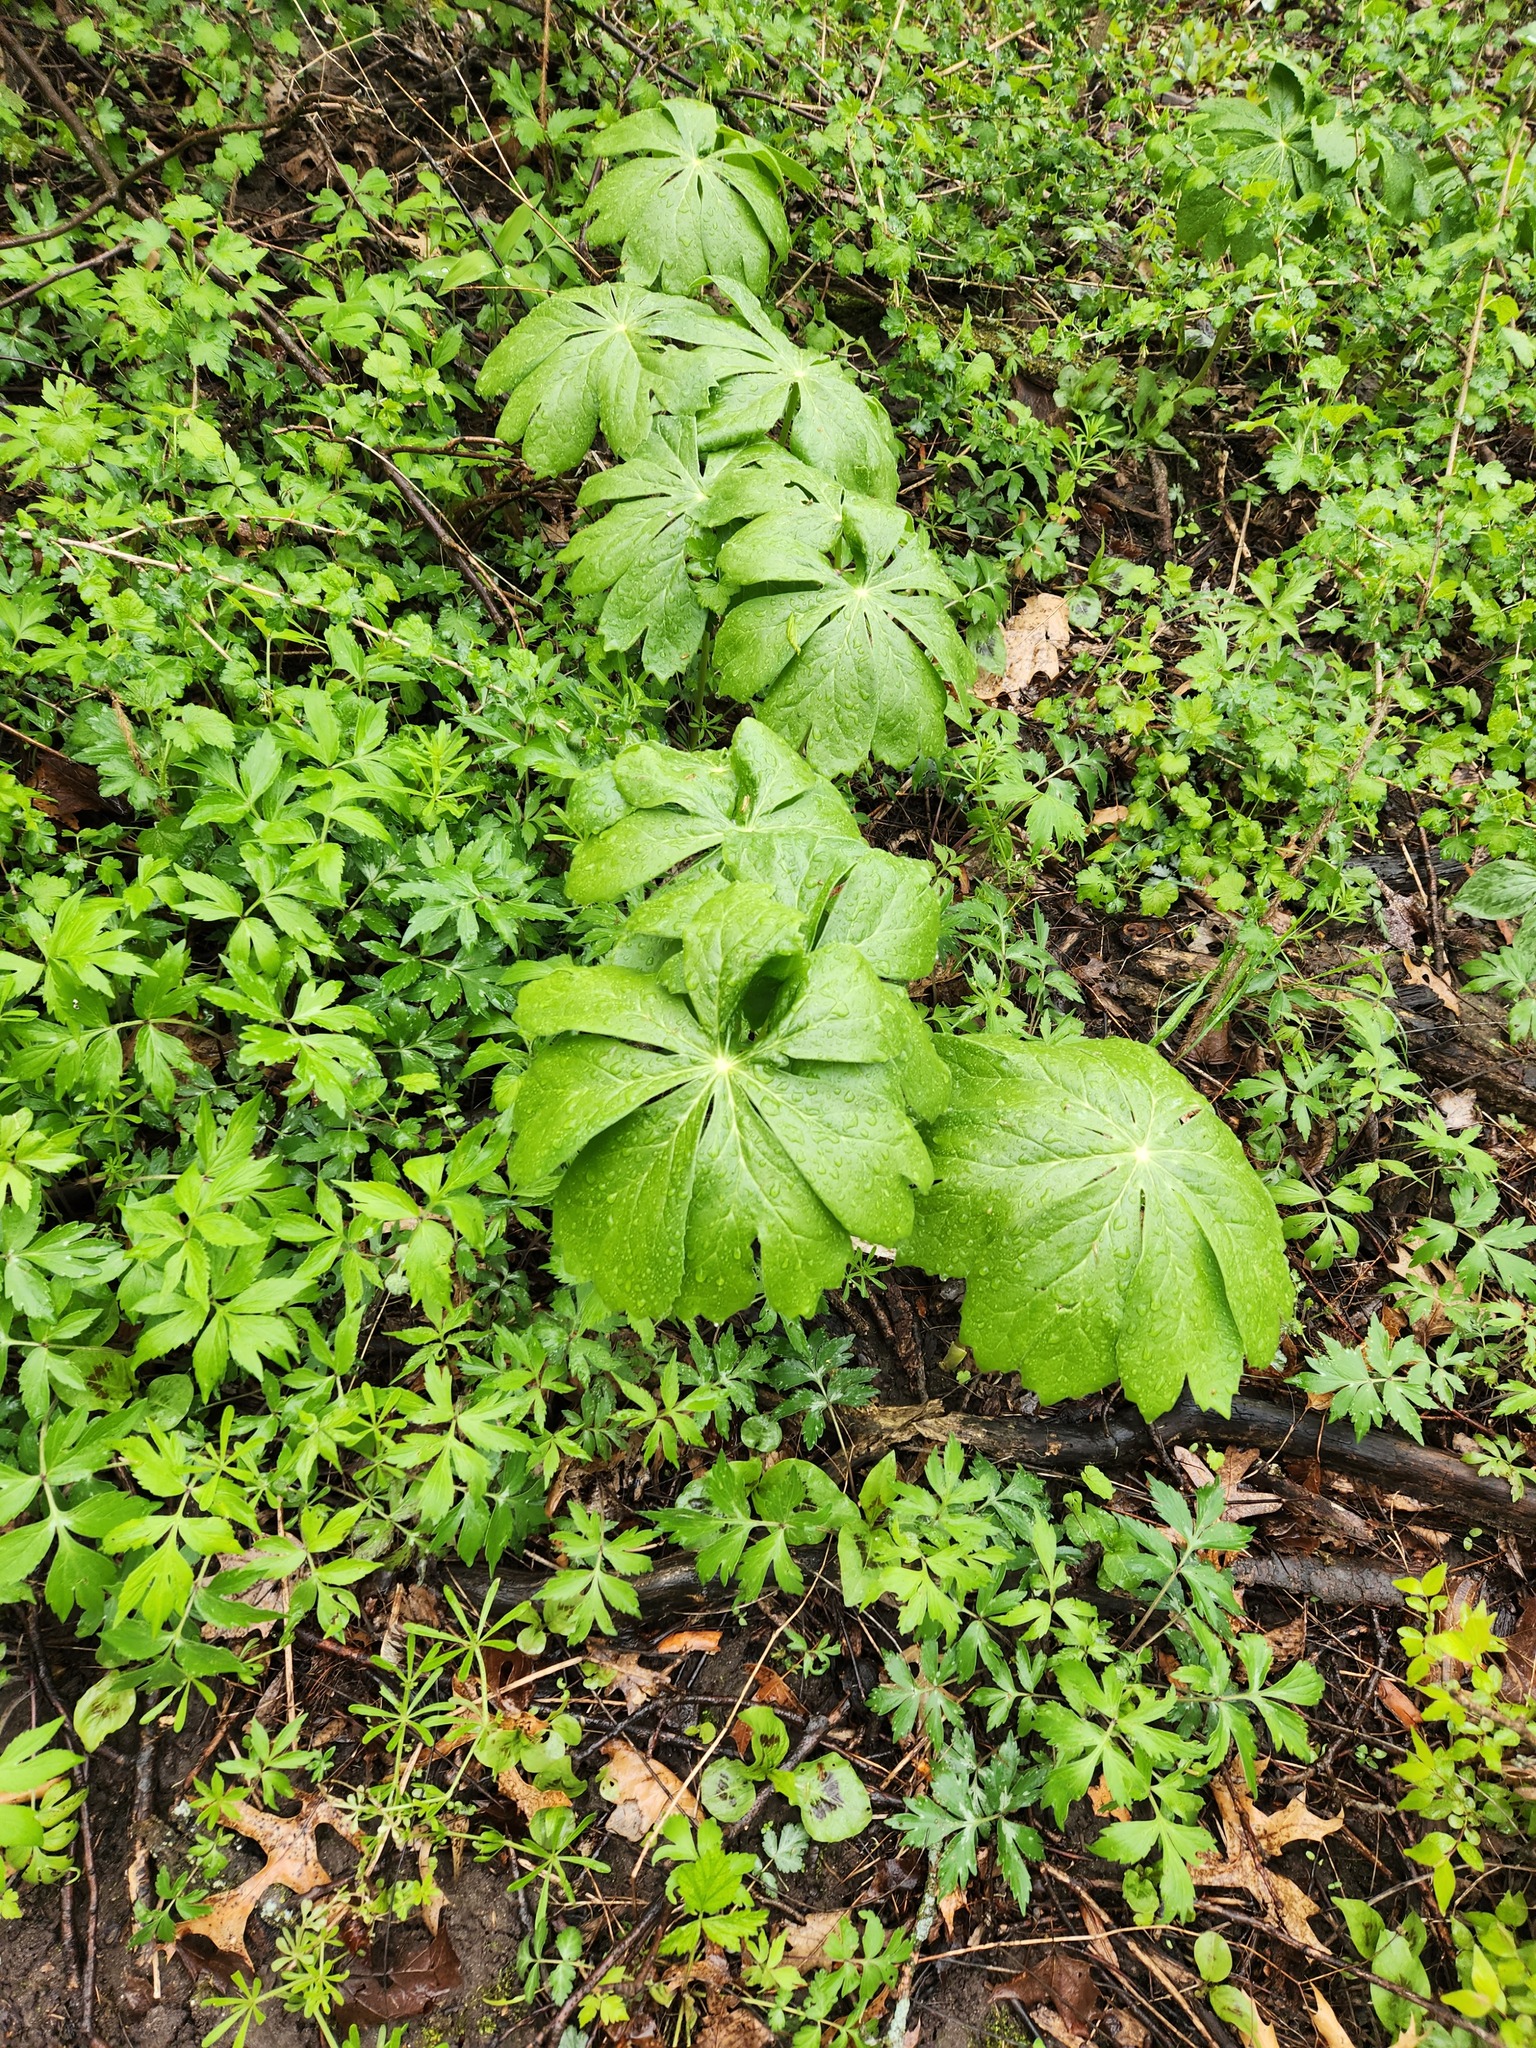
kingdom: Plantae
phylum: Tracheophyta
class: Magnoliopsida
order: Ranunculales
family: Berberidaceae
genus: Podophyllum
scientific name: Podophyllum peltatum
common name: Wild mandrake
